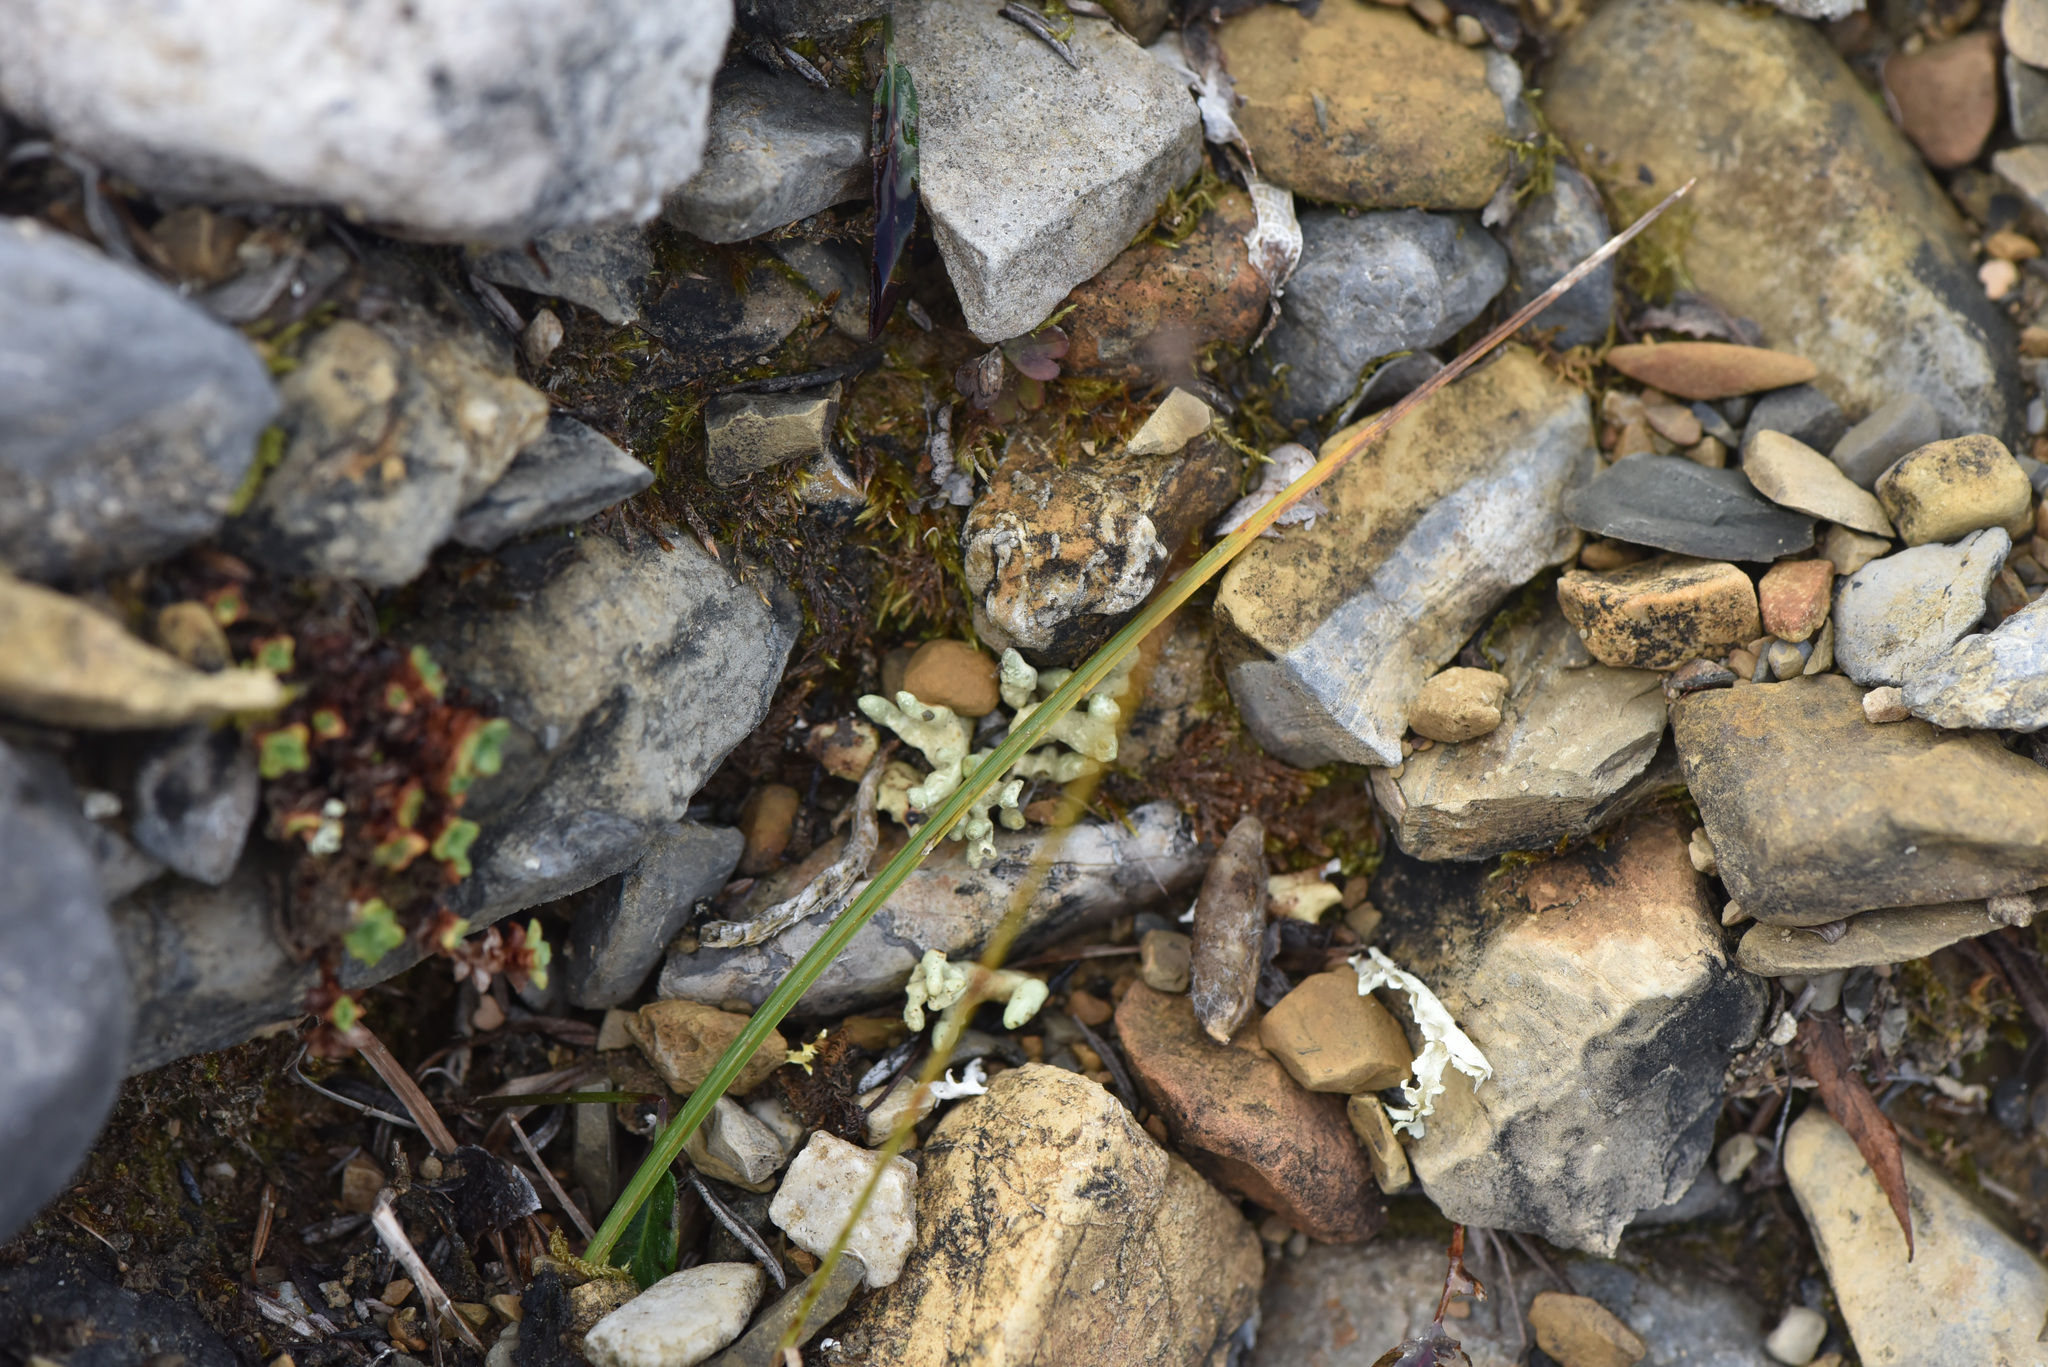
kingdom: Fungi
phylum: Ascomycota
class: Lecanoromycetes
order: Lecanorales
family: Parmeliaceae
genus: Dactylina
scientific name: Dactylina arctica
